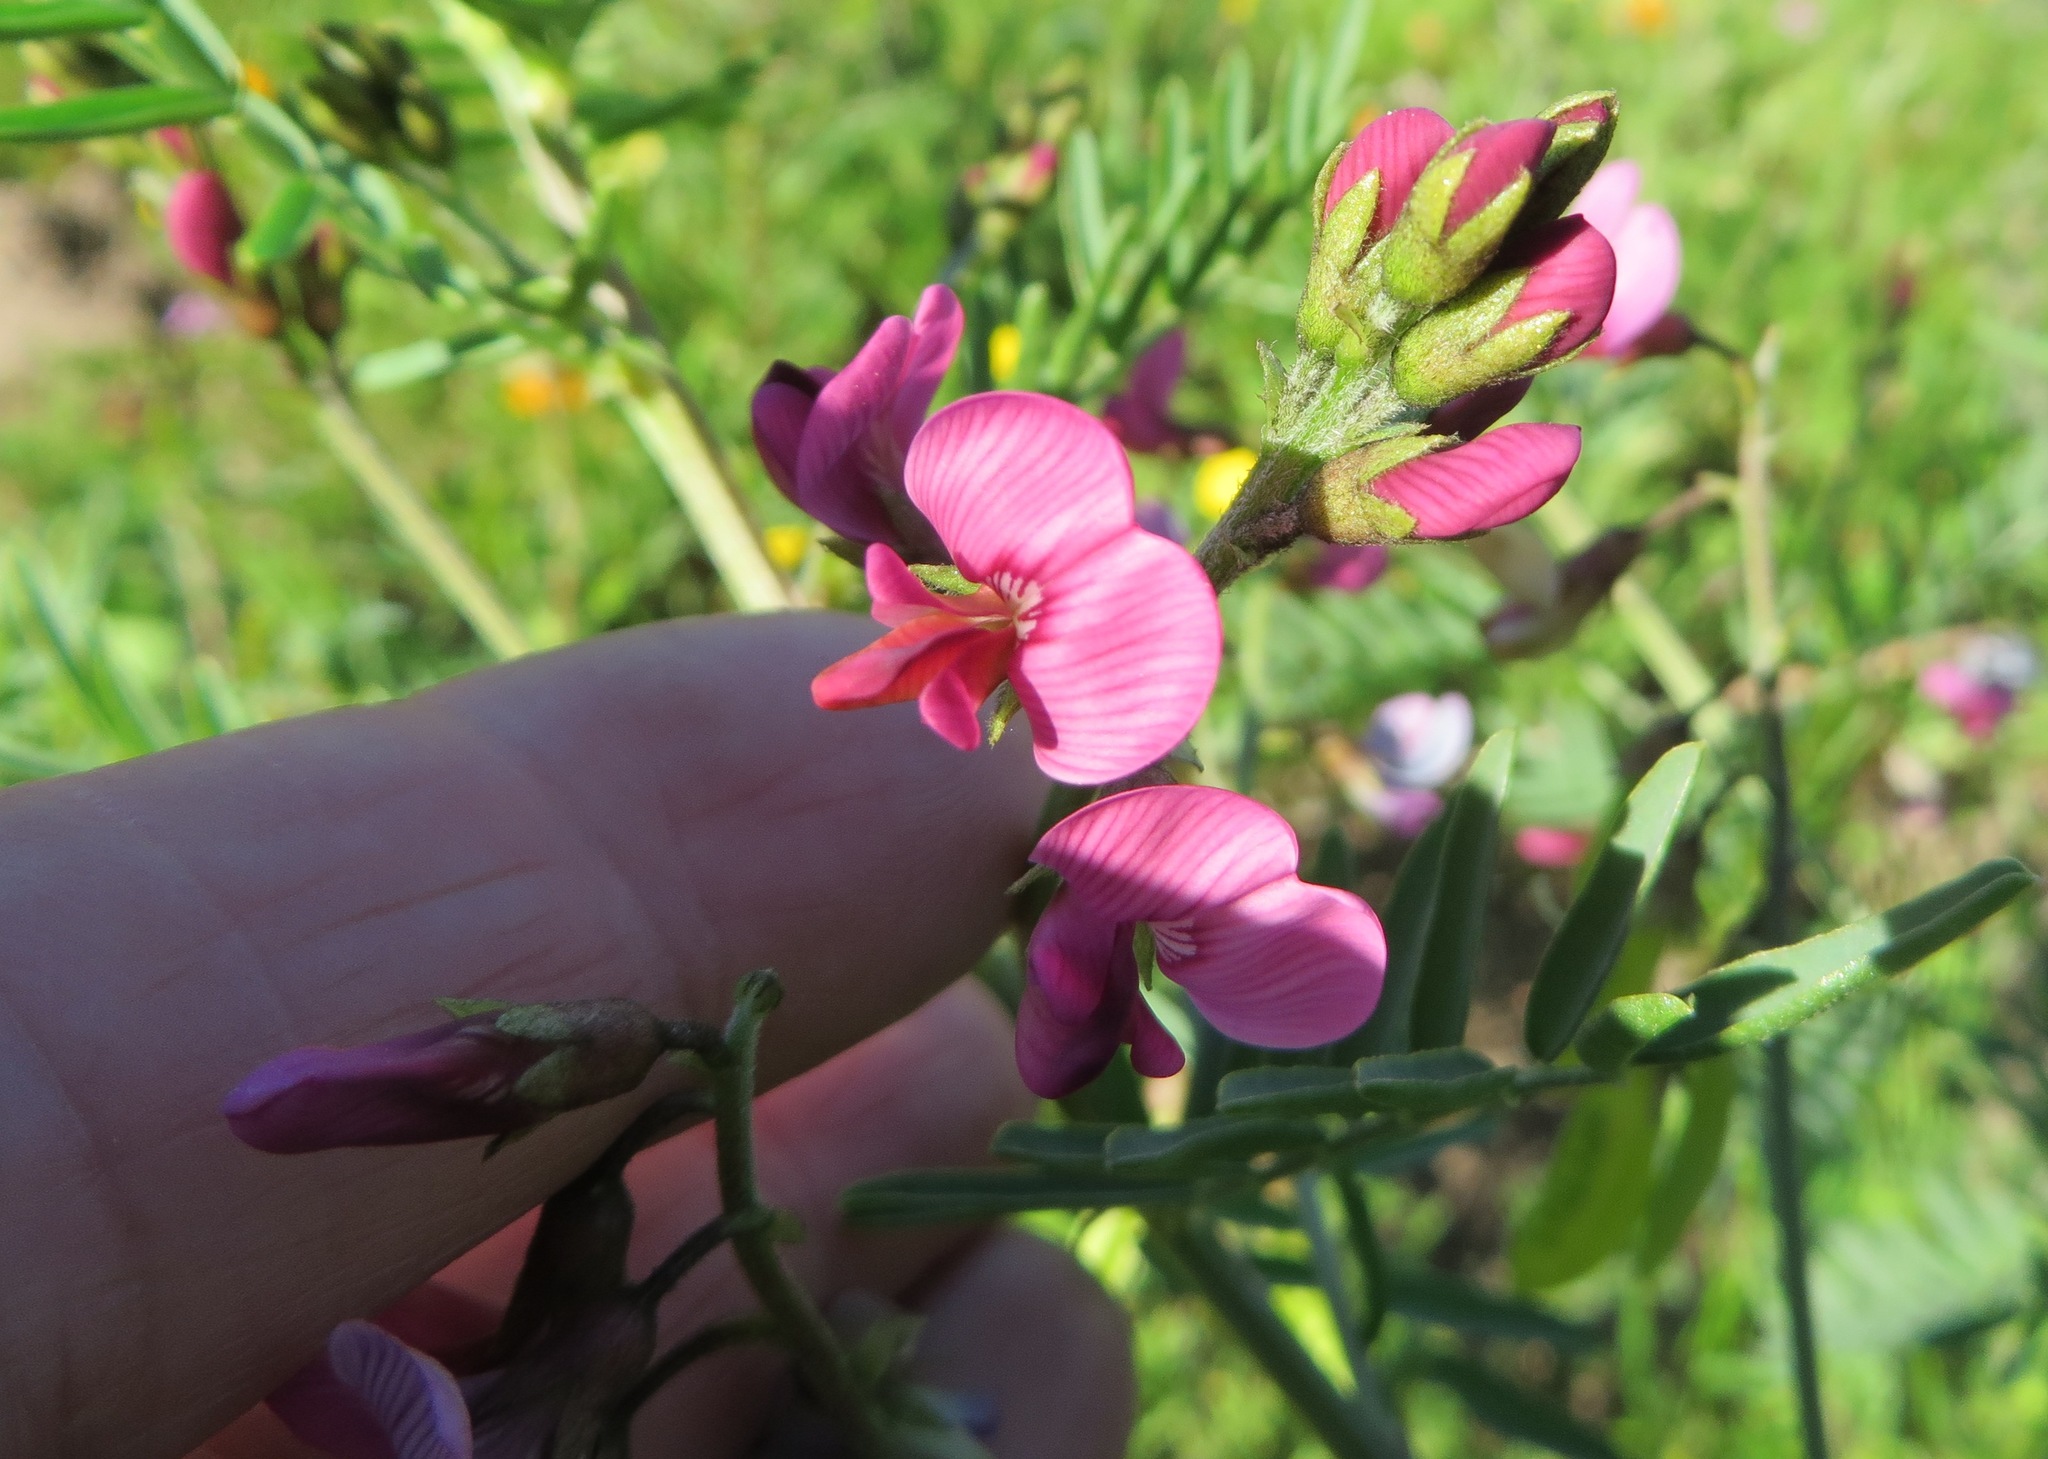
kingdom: Plantae
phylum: Tracheophyta
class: Magnoliopsida
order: Fabales
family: Fabaceae
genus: Lessertia
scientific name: Lessertia meyeri
